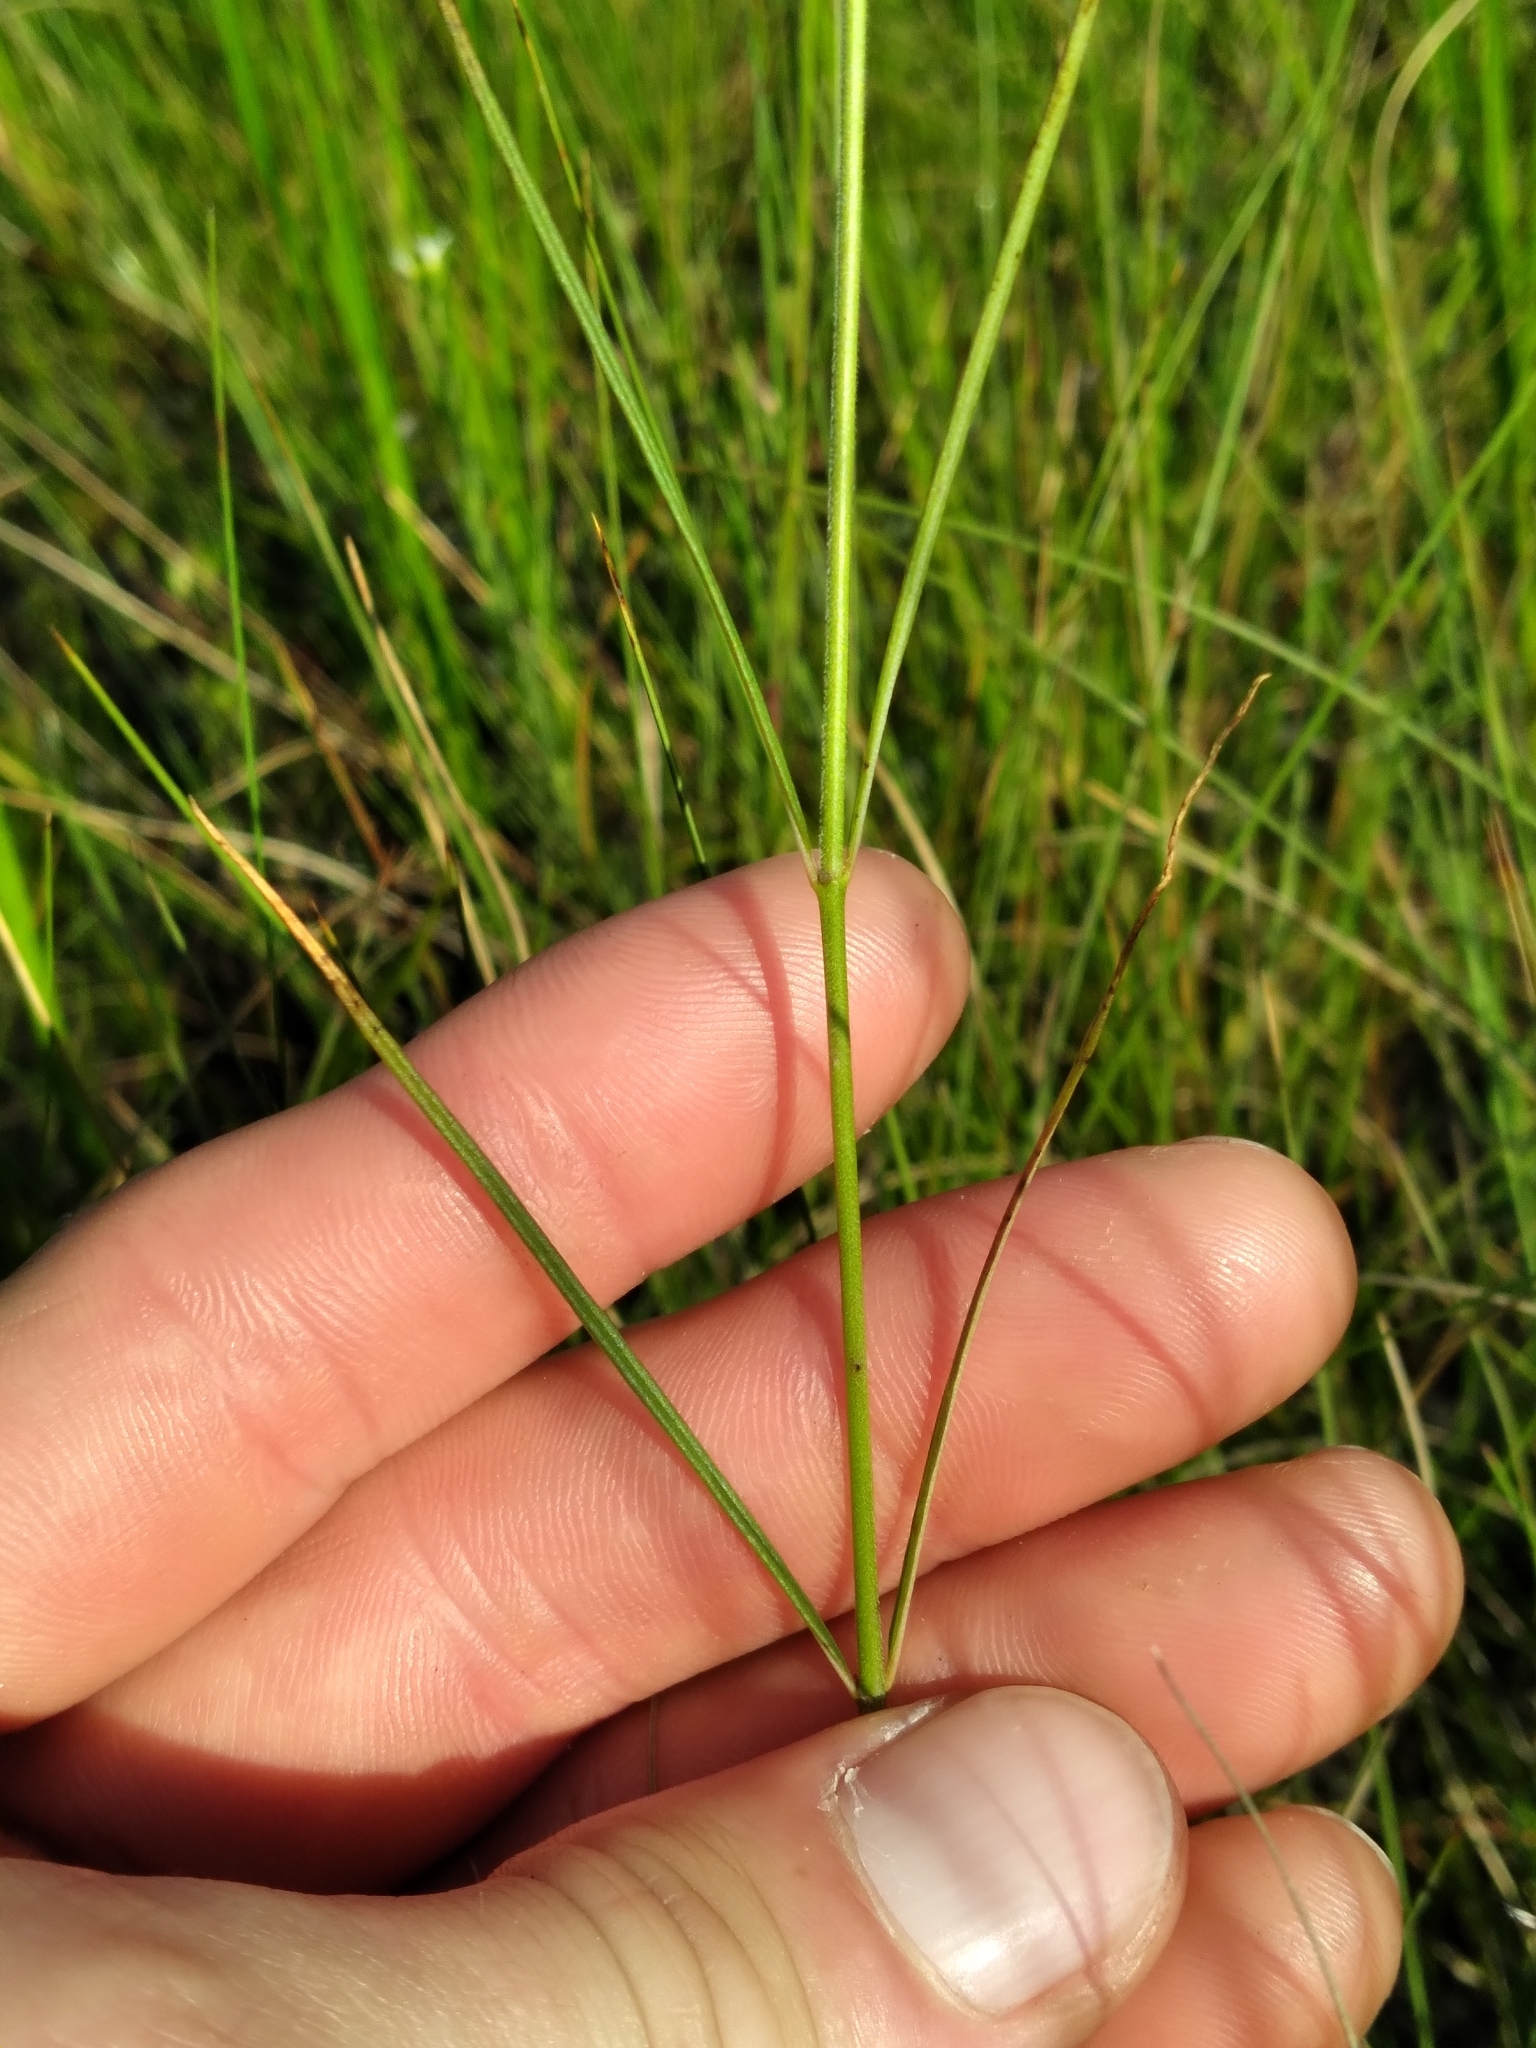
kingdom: Plantae
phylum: Tracheophyta
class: Magnoliopsida
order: Gentianales
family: Apocynaceae
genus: Asclepias
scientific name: Asclepias verticillata
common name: Eastern whorled milkweed
